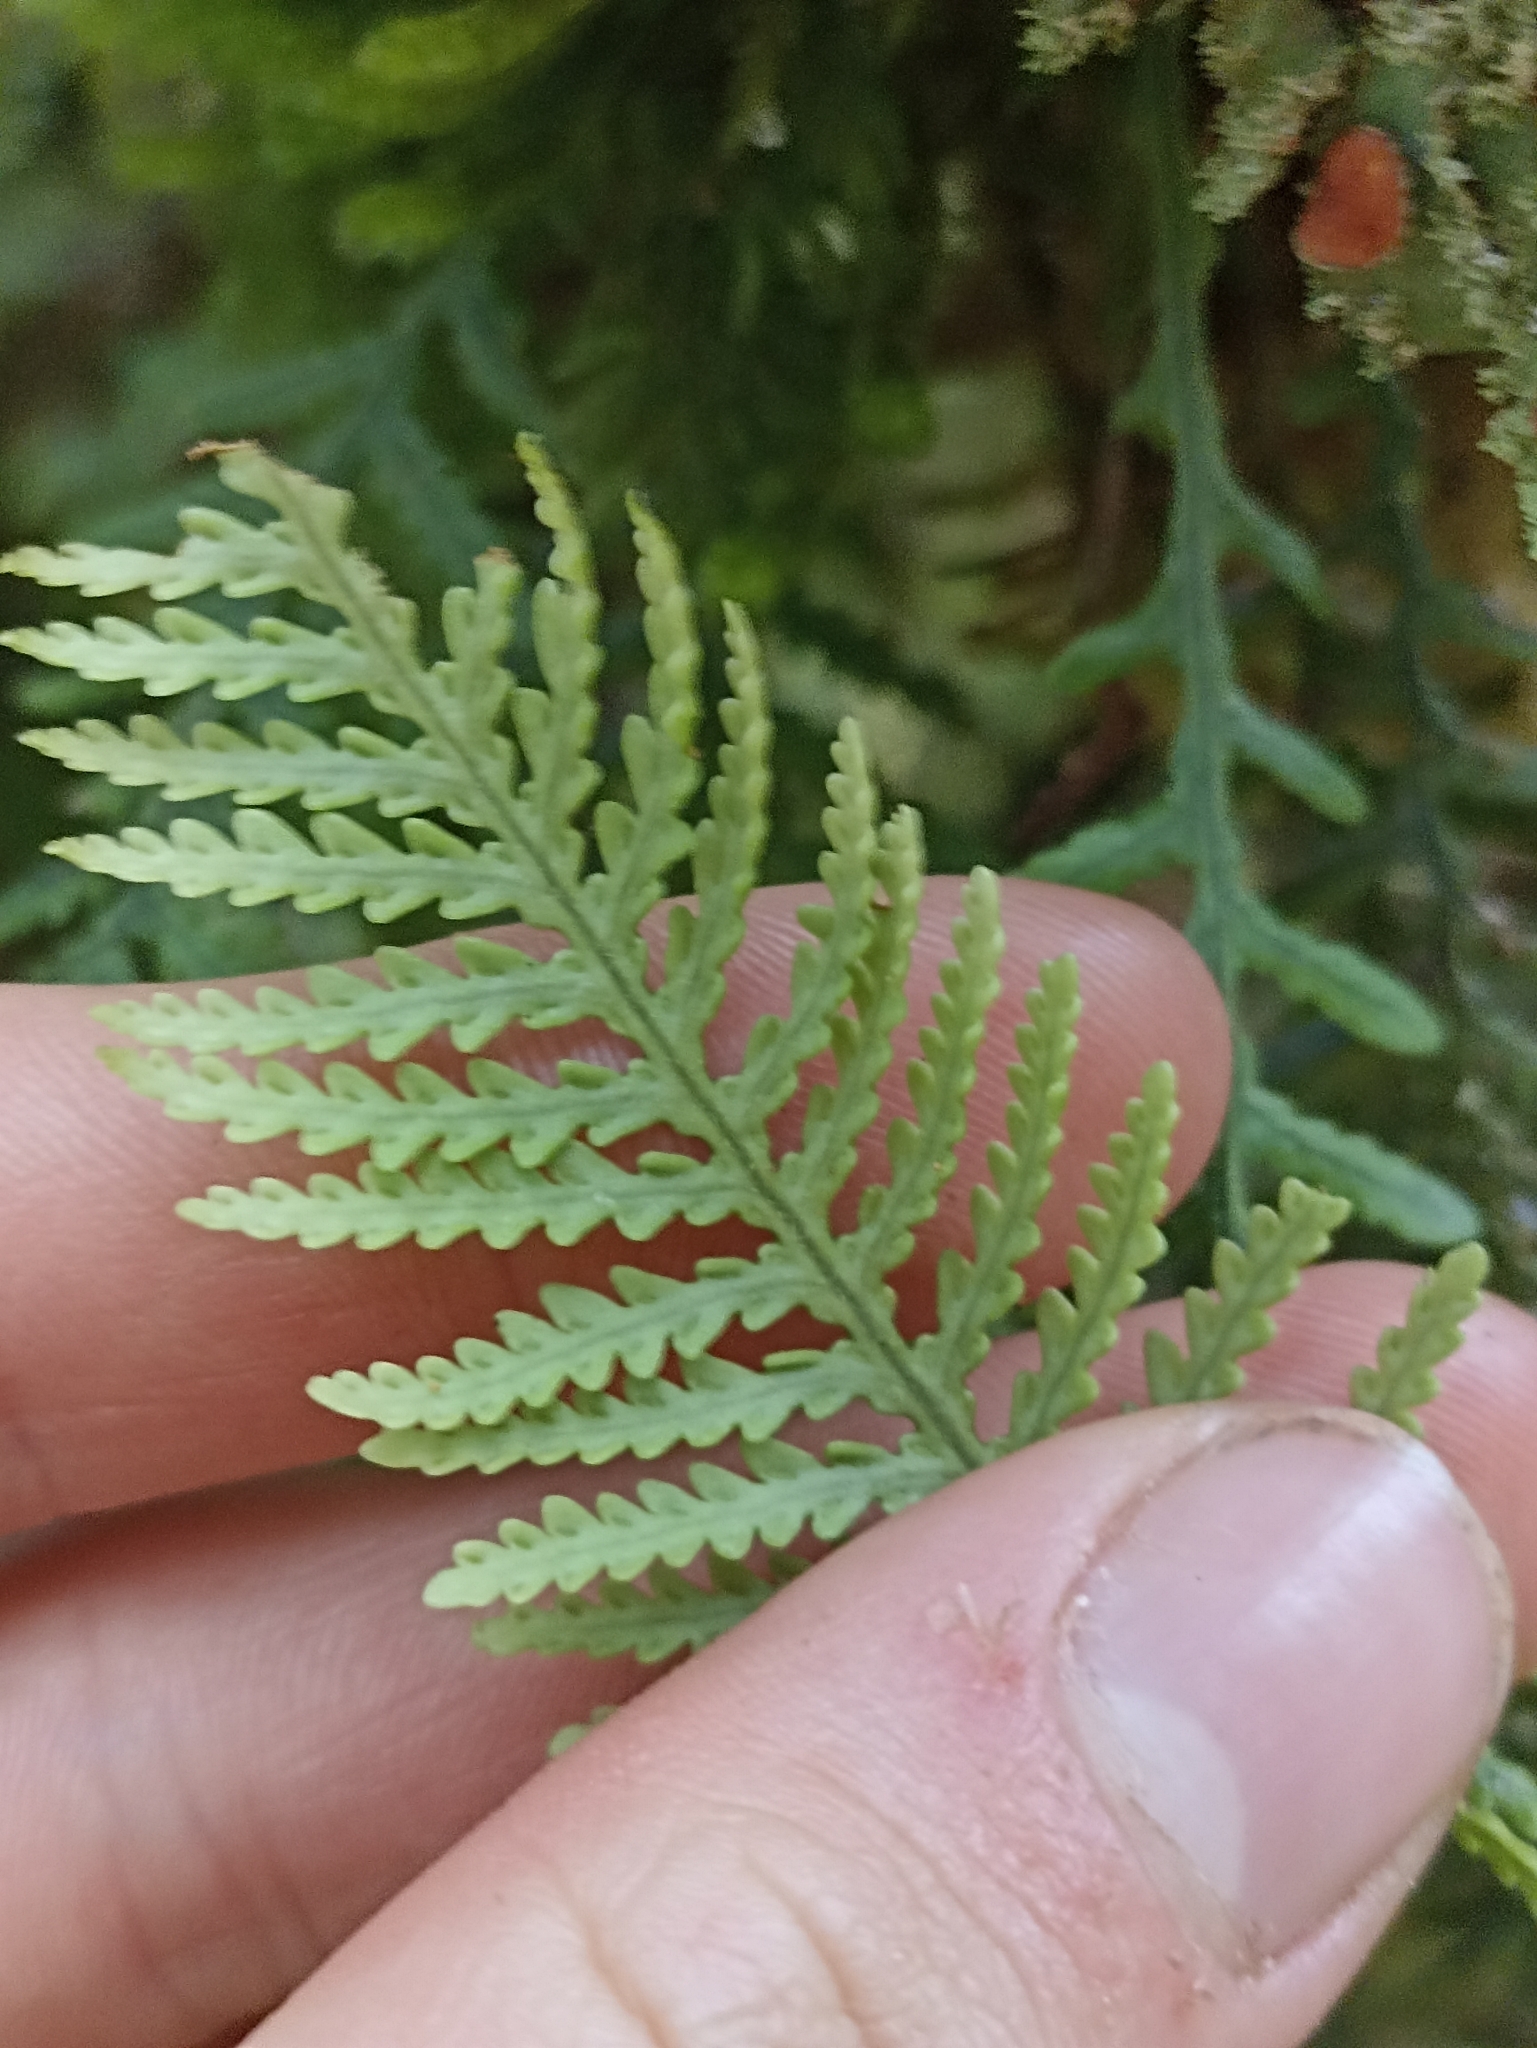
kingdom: Plantae
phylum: Tracheophyta
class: Polypodiopsida
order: Polypodiales
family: Polypodiaceae
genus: Notogrammitis
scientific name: Notogrammitis heterophylla
